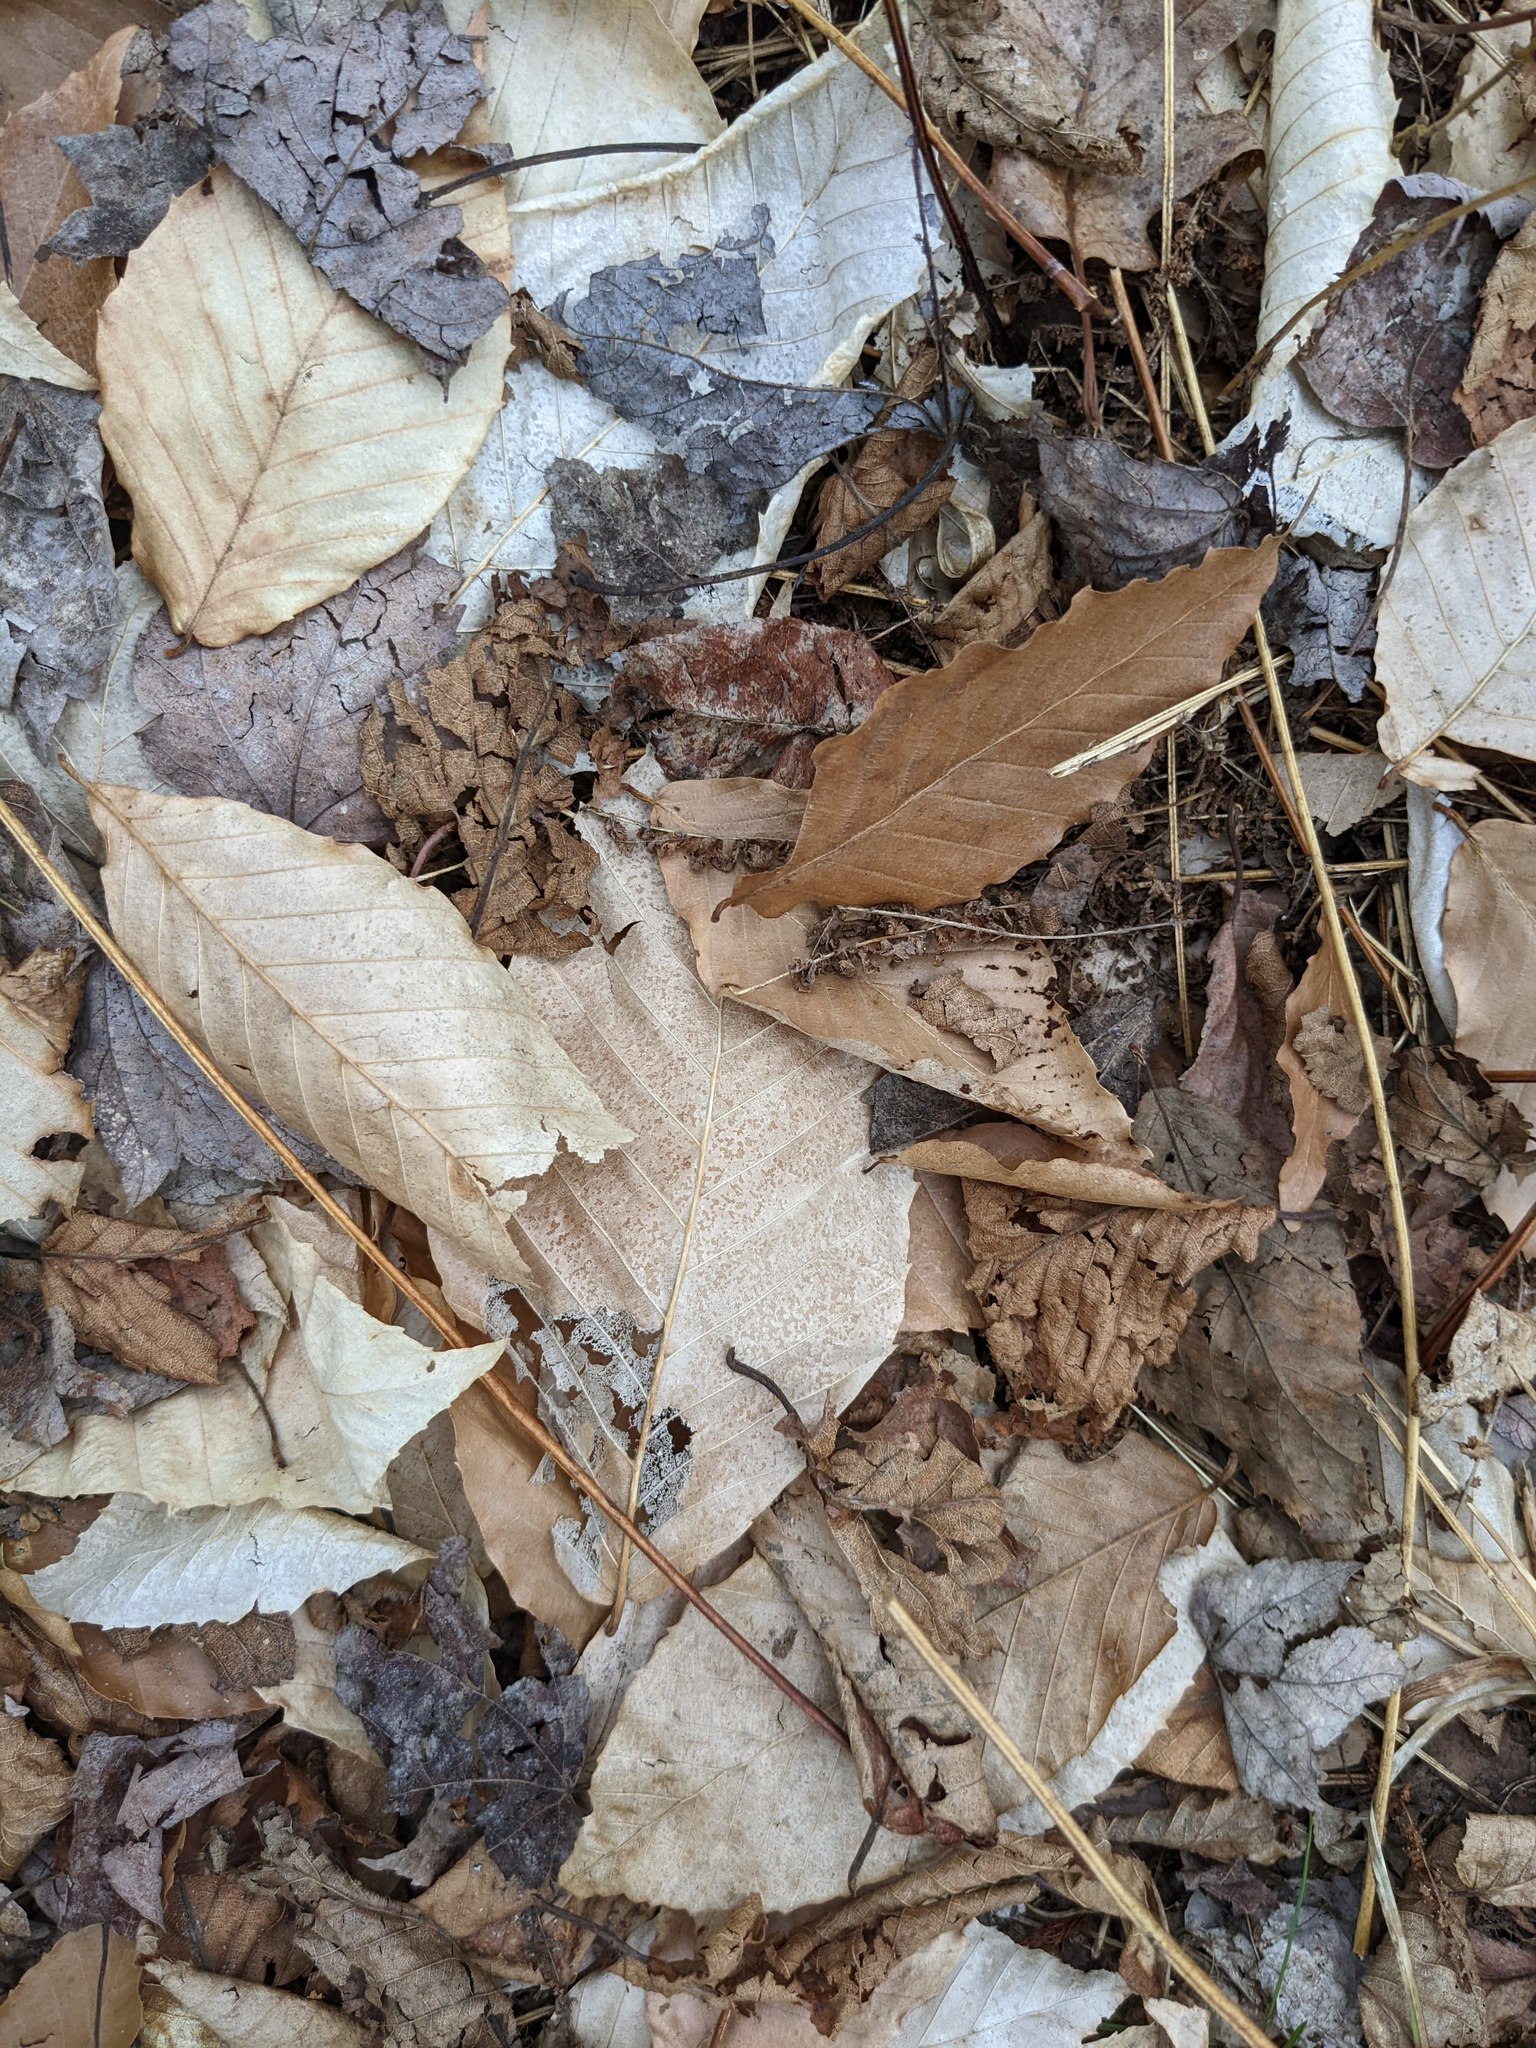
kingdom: Plantae
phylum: Tracheophyta
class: Magnoliopsida
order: Fagales
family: Fagaceae
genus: Fagus
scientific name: Fagus grandifolia
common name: American beech
